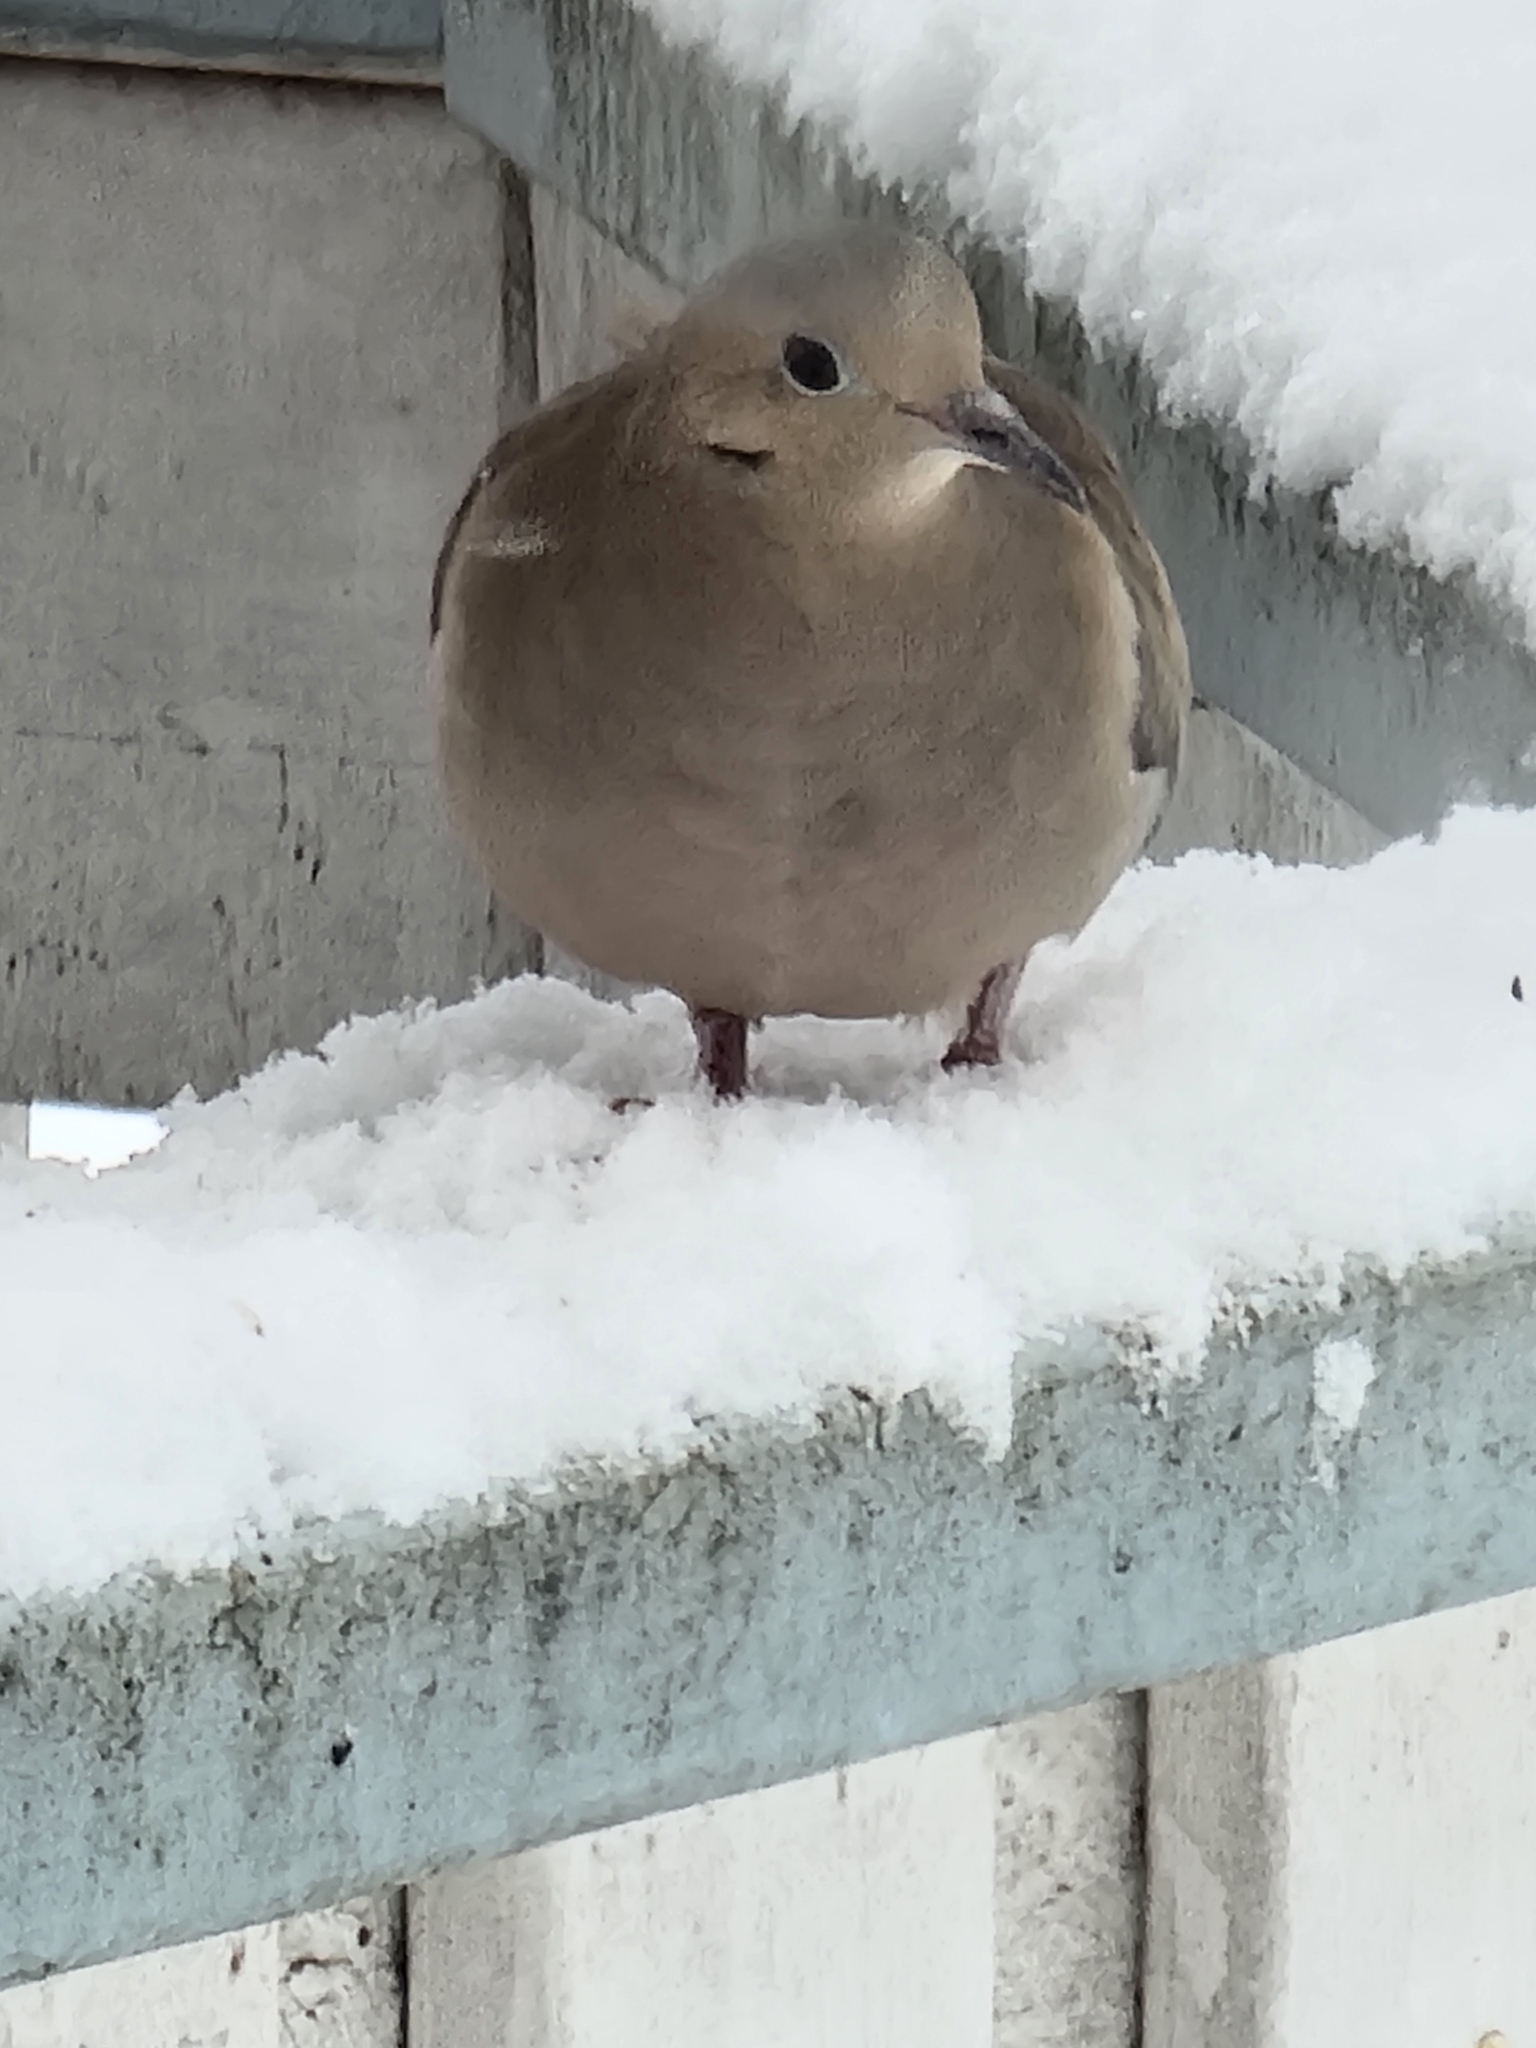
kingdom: Animalia
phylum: Chordata
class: Aves
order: Columbiformes
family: Columbidae
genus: Zenaida
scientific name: Zenaida macroura
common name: Mourning dove
